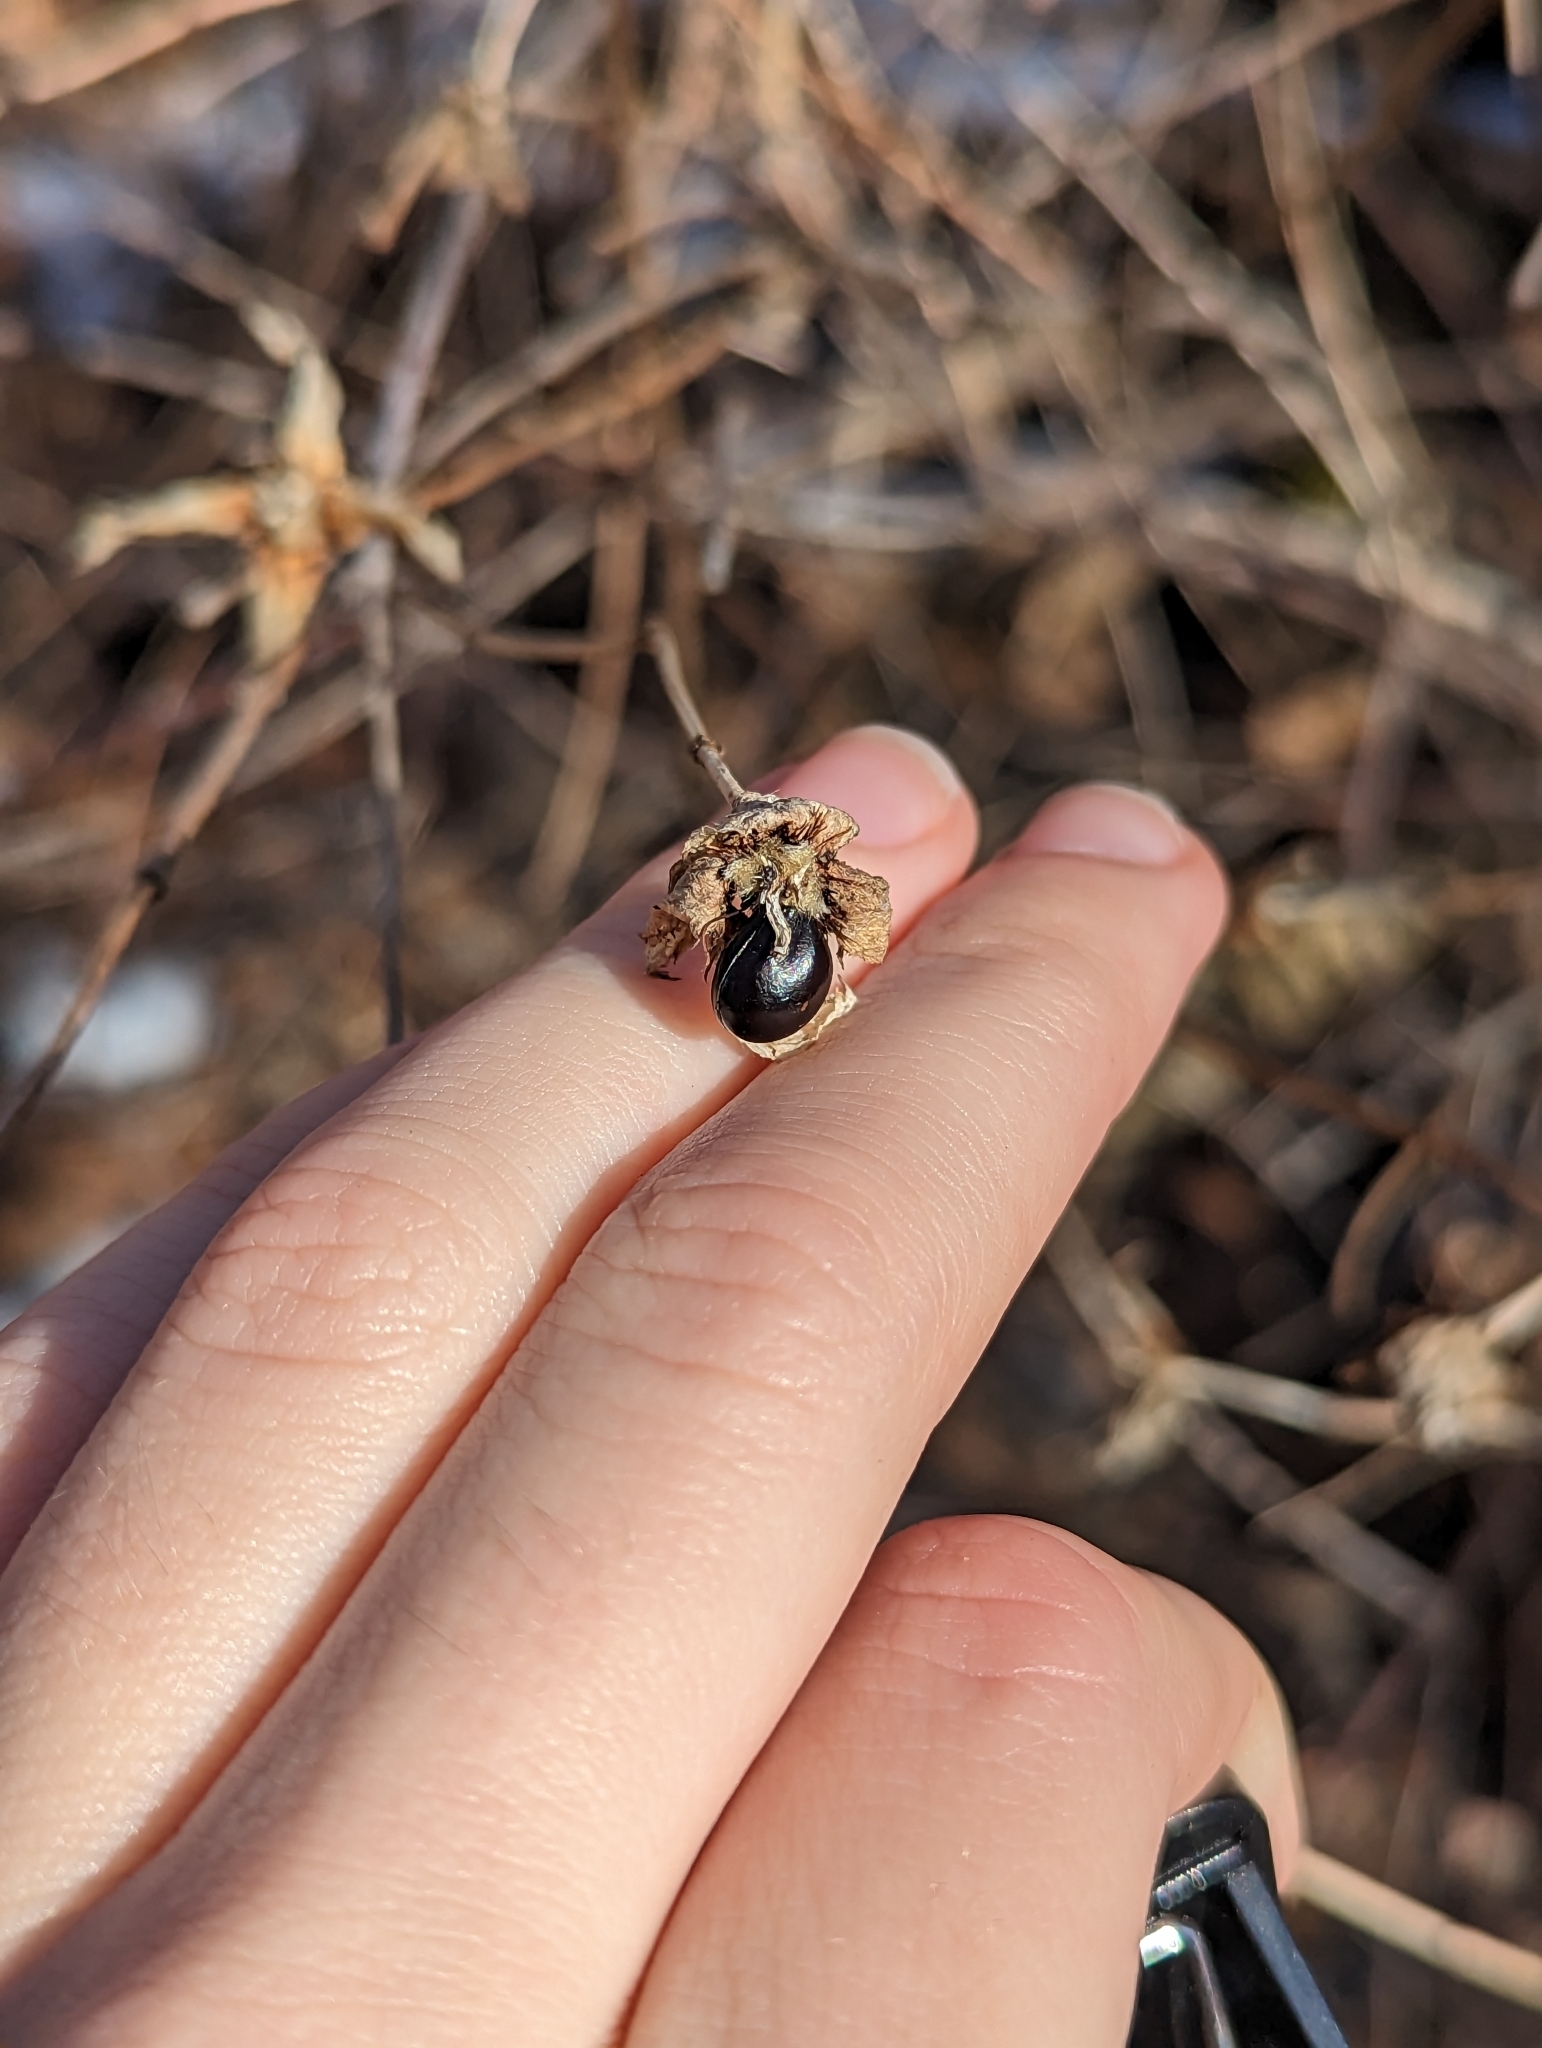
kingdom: Plantae
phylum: Tracheophyta
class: Magnoliopsida
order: Rosales
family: Rosaceae
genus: Rhodotypos
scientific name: Rhodotypos scandens
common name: Jetbead
